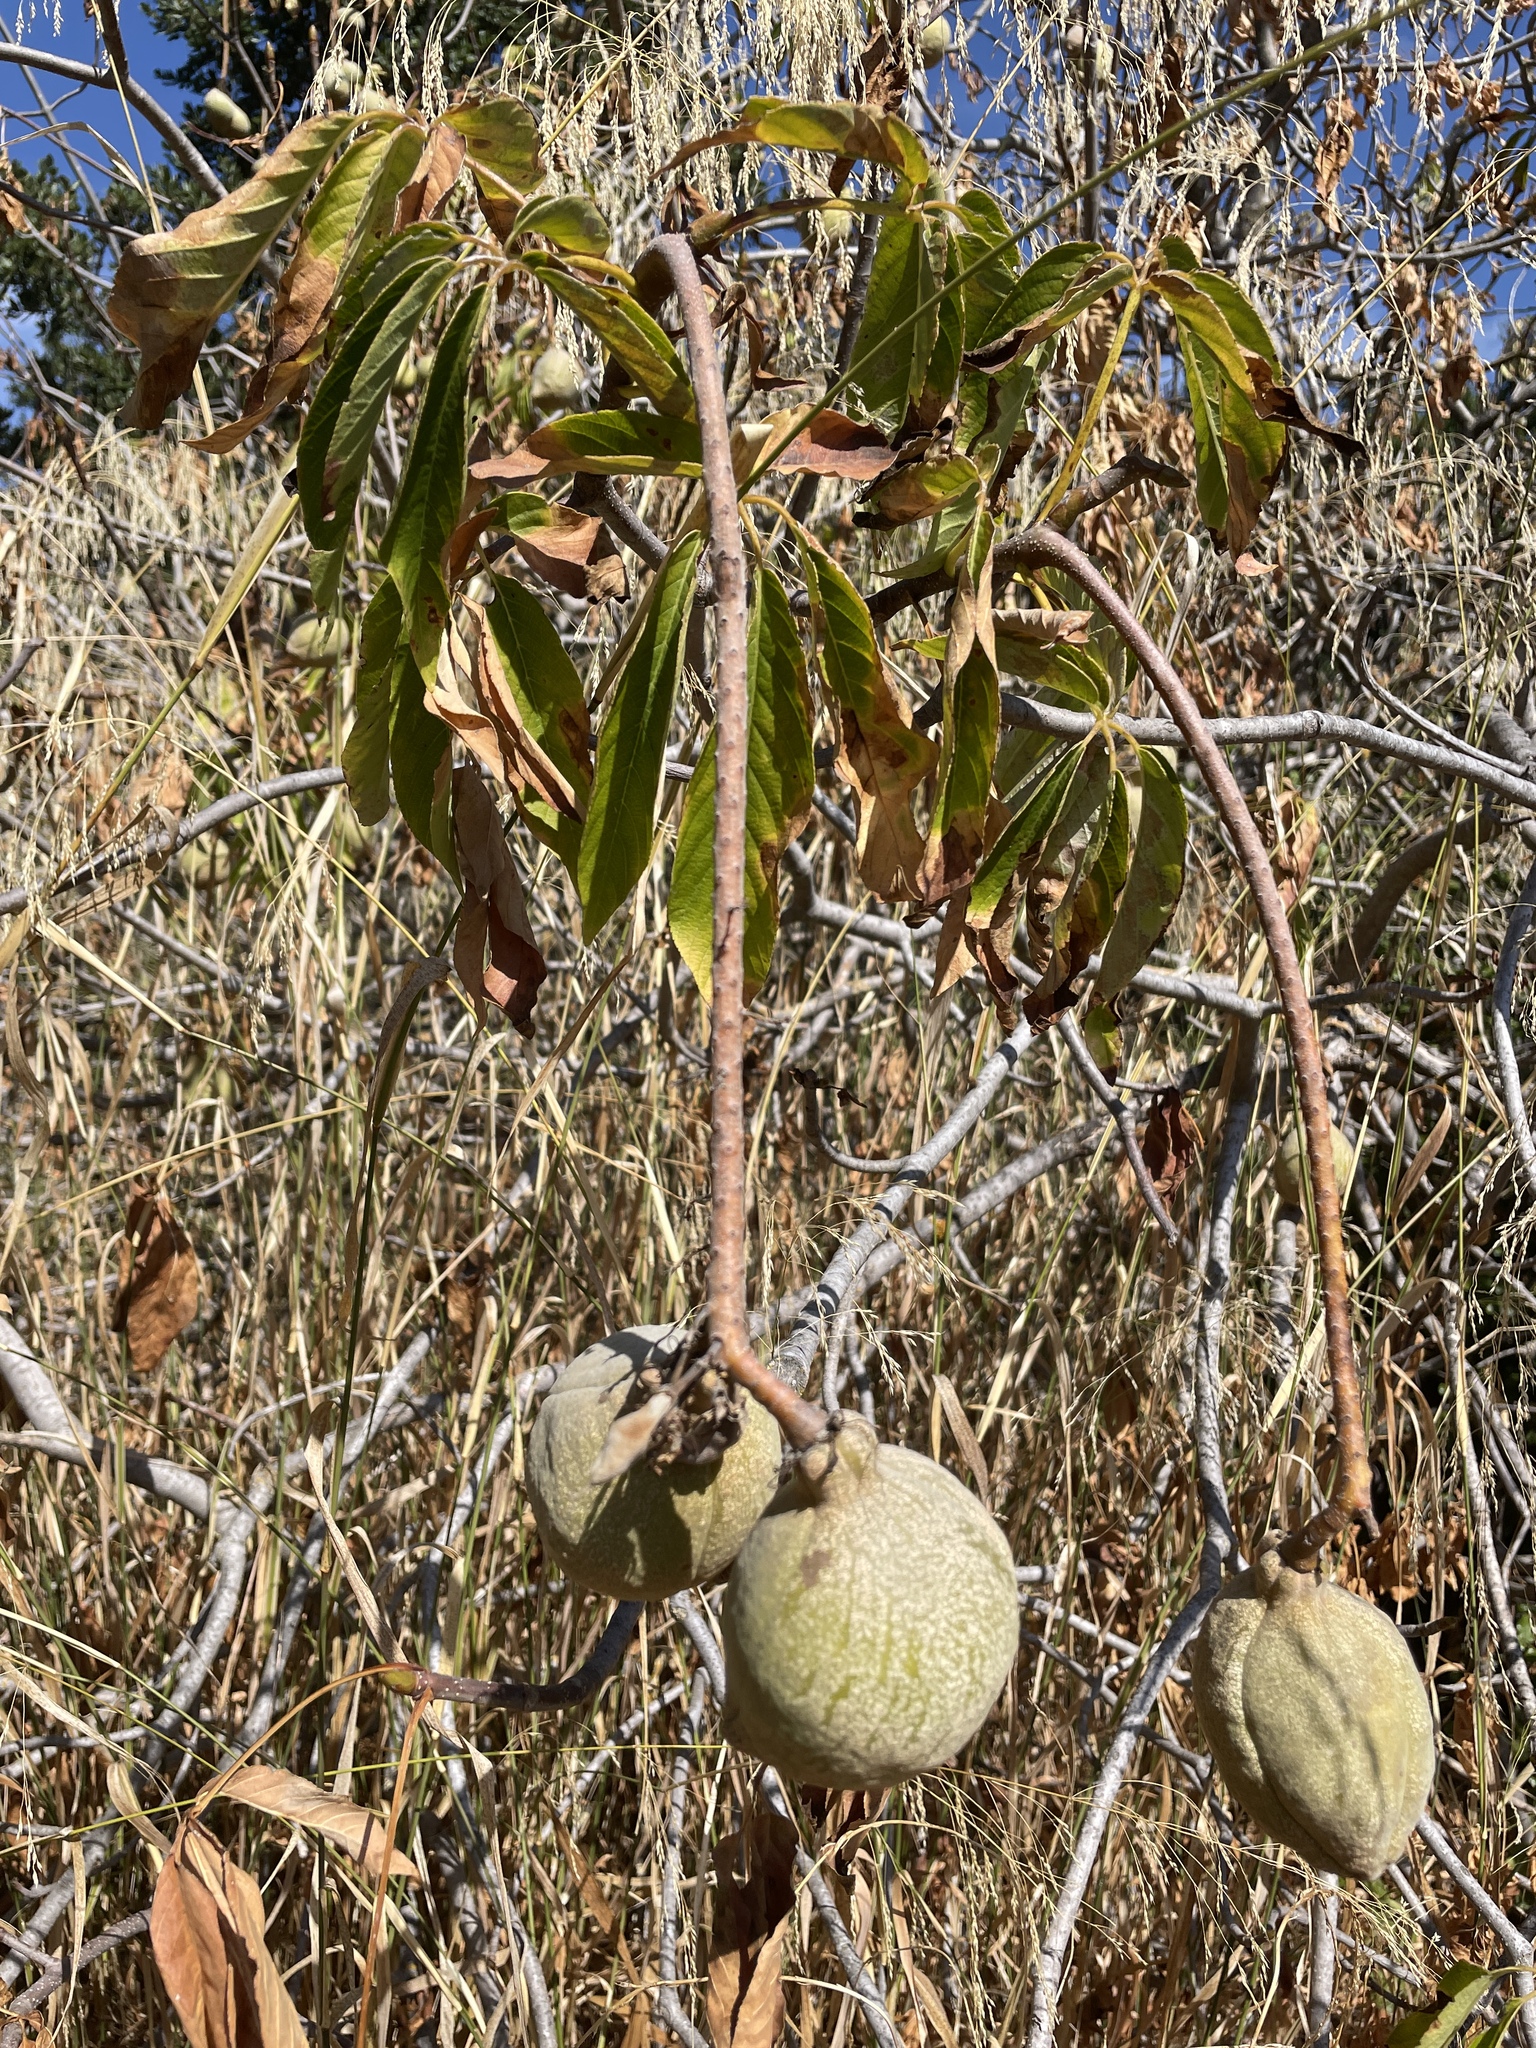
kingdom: Plantae
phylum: Tracheophyta
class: Magnoliopsida
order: Sapindales
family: Sapindaceae
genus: Aesculus
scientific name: Aesculus californica
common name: California buckeye
